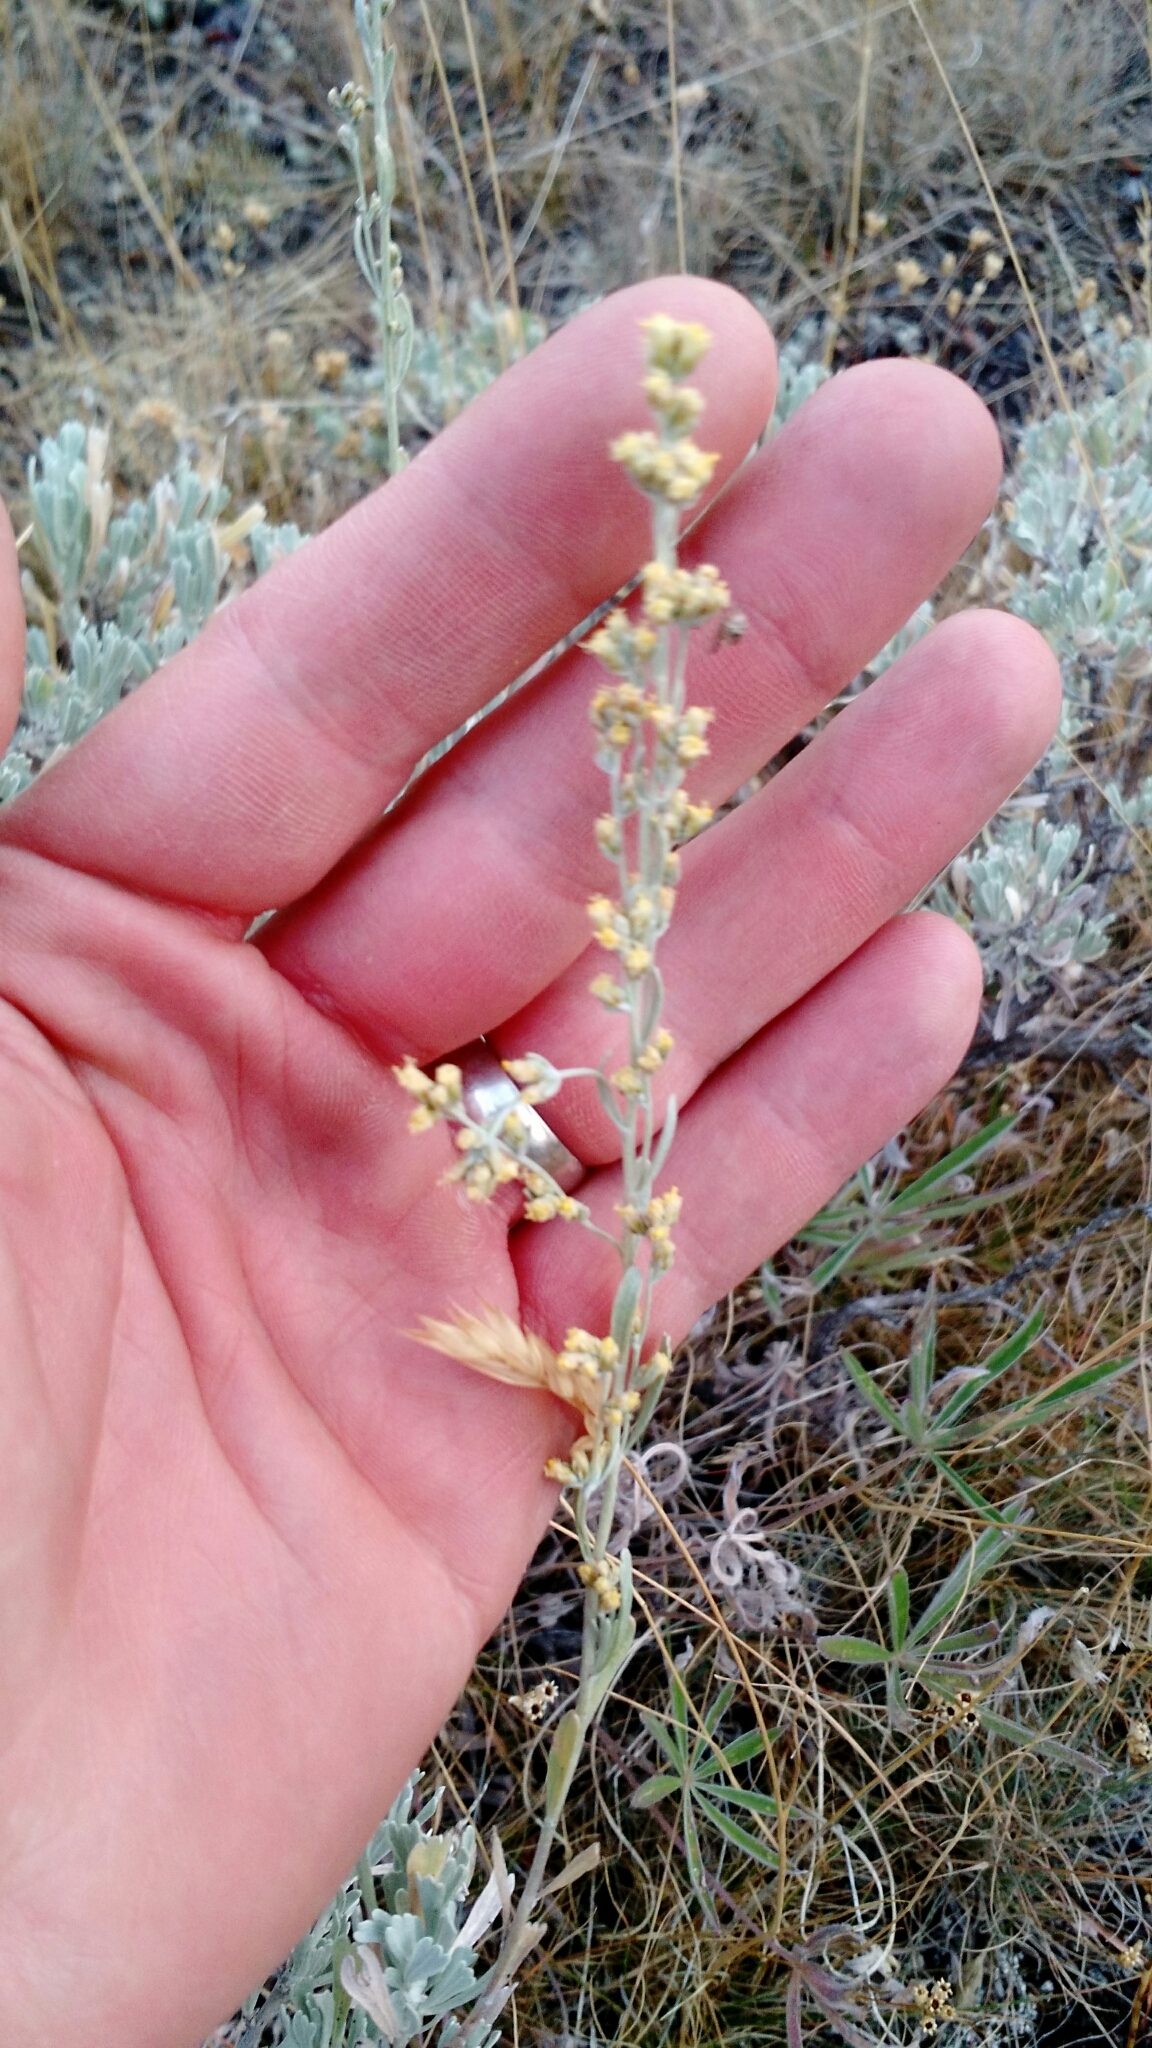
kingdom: Plantae
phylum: Tracheophyta
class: Magnoliopsida
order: Asterales
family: Asteraceae
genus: Artemisia
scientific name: Artemisia tridentata
